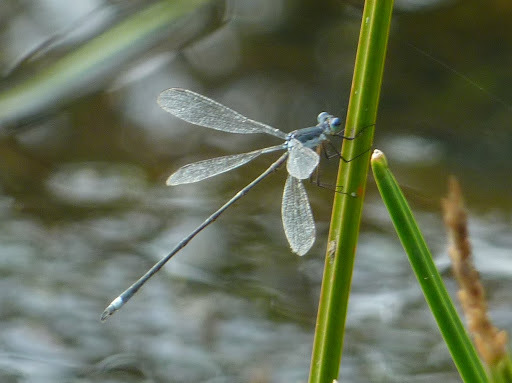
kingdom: Animalia
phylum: Arthropoda
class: Insecta
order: Odonata
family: Lestidae
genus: Lestes
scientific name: Lestes vigilax
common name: Swamp spreadwing
